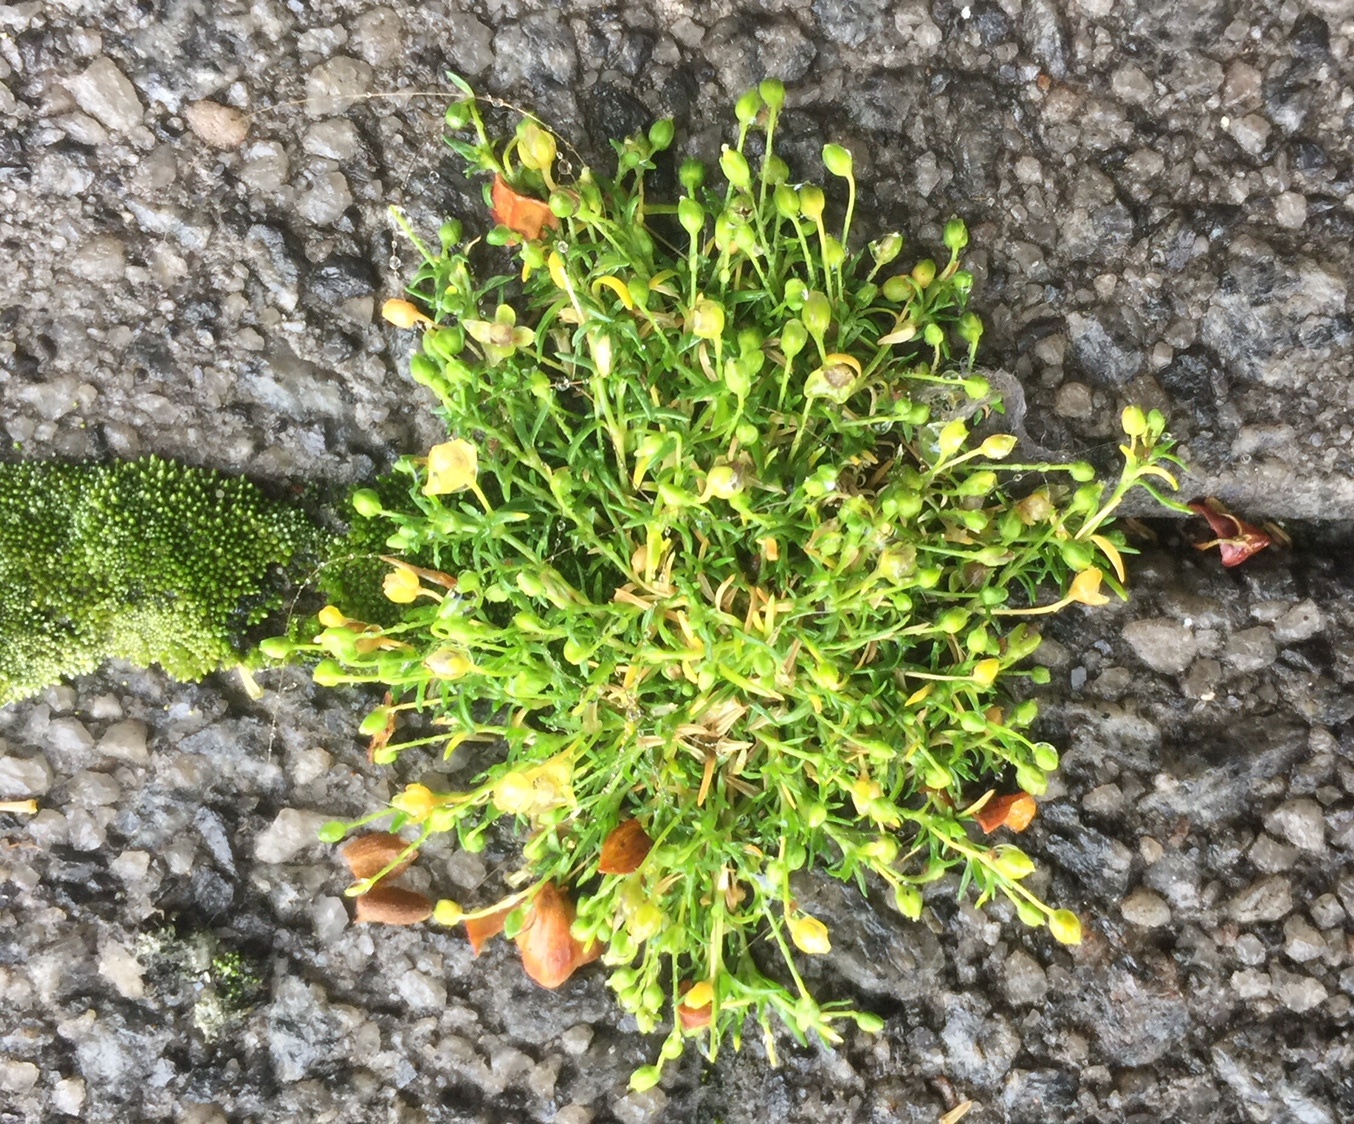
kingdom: Plantae
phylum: Tracheophyta
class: Magnoliopsida
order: Caryophyllales
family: Caryophyllaceae
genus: Sagina
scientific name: Sagina procumbens
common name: Procumbent pearlwort
